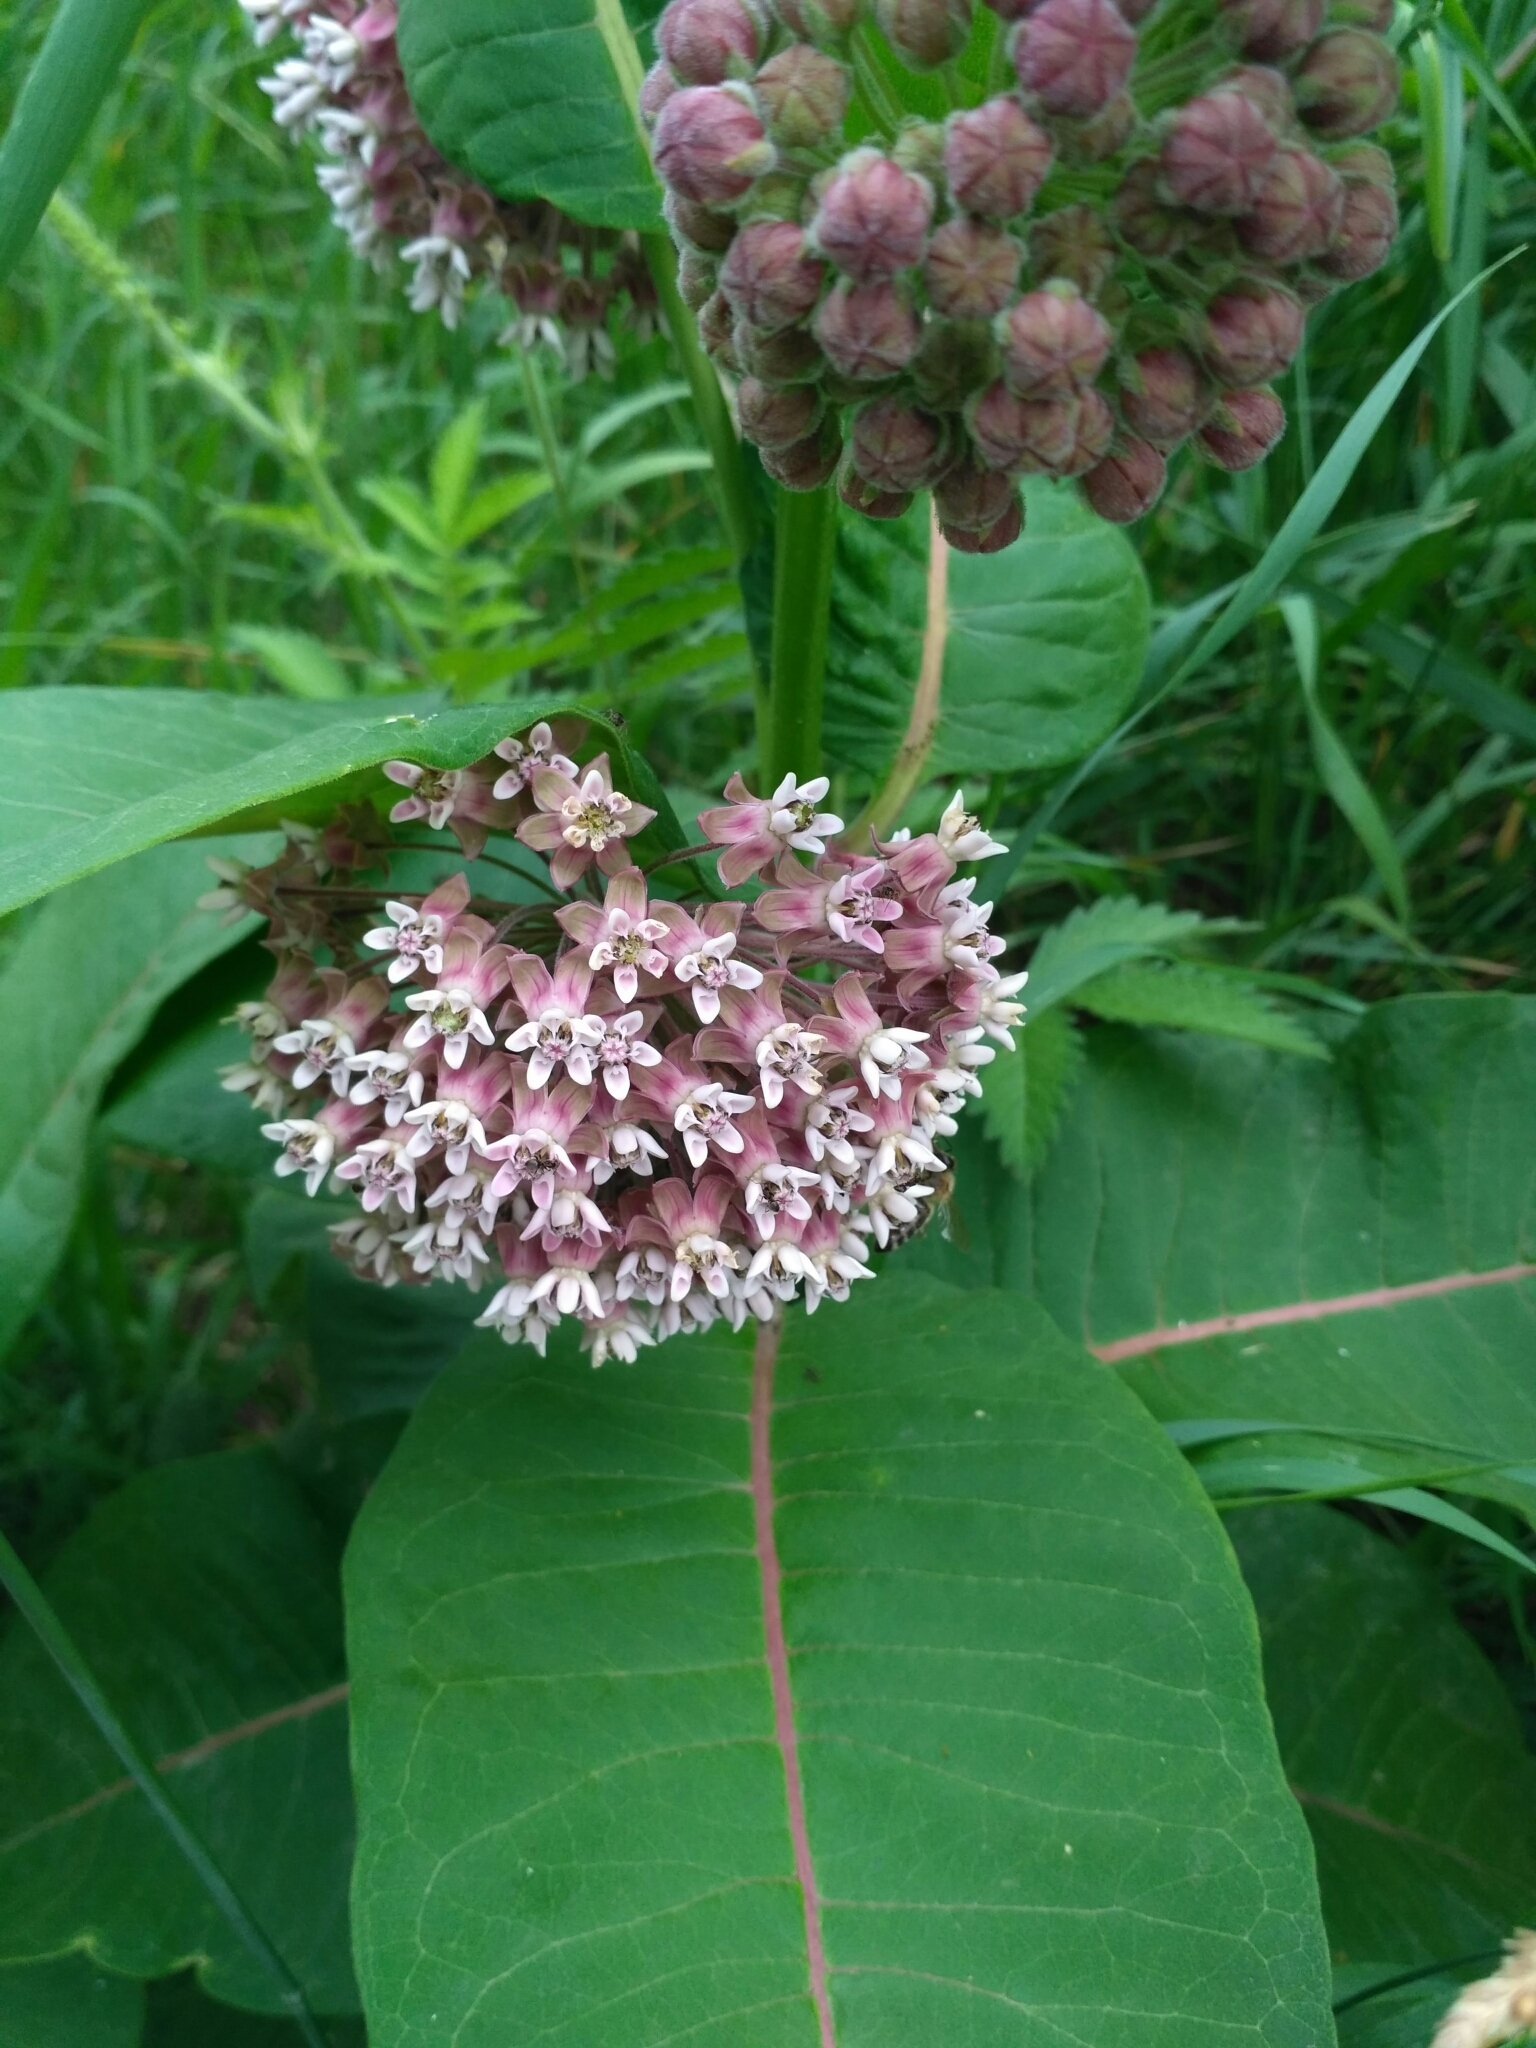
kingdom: Plantae
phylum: Tracheophyta
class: Magnoliopsida
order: Gentianales
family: Apocynaceae
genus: Asclepias
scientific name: Asclepias syriaca
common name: Common milkweed
